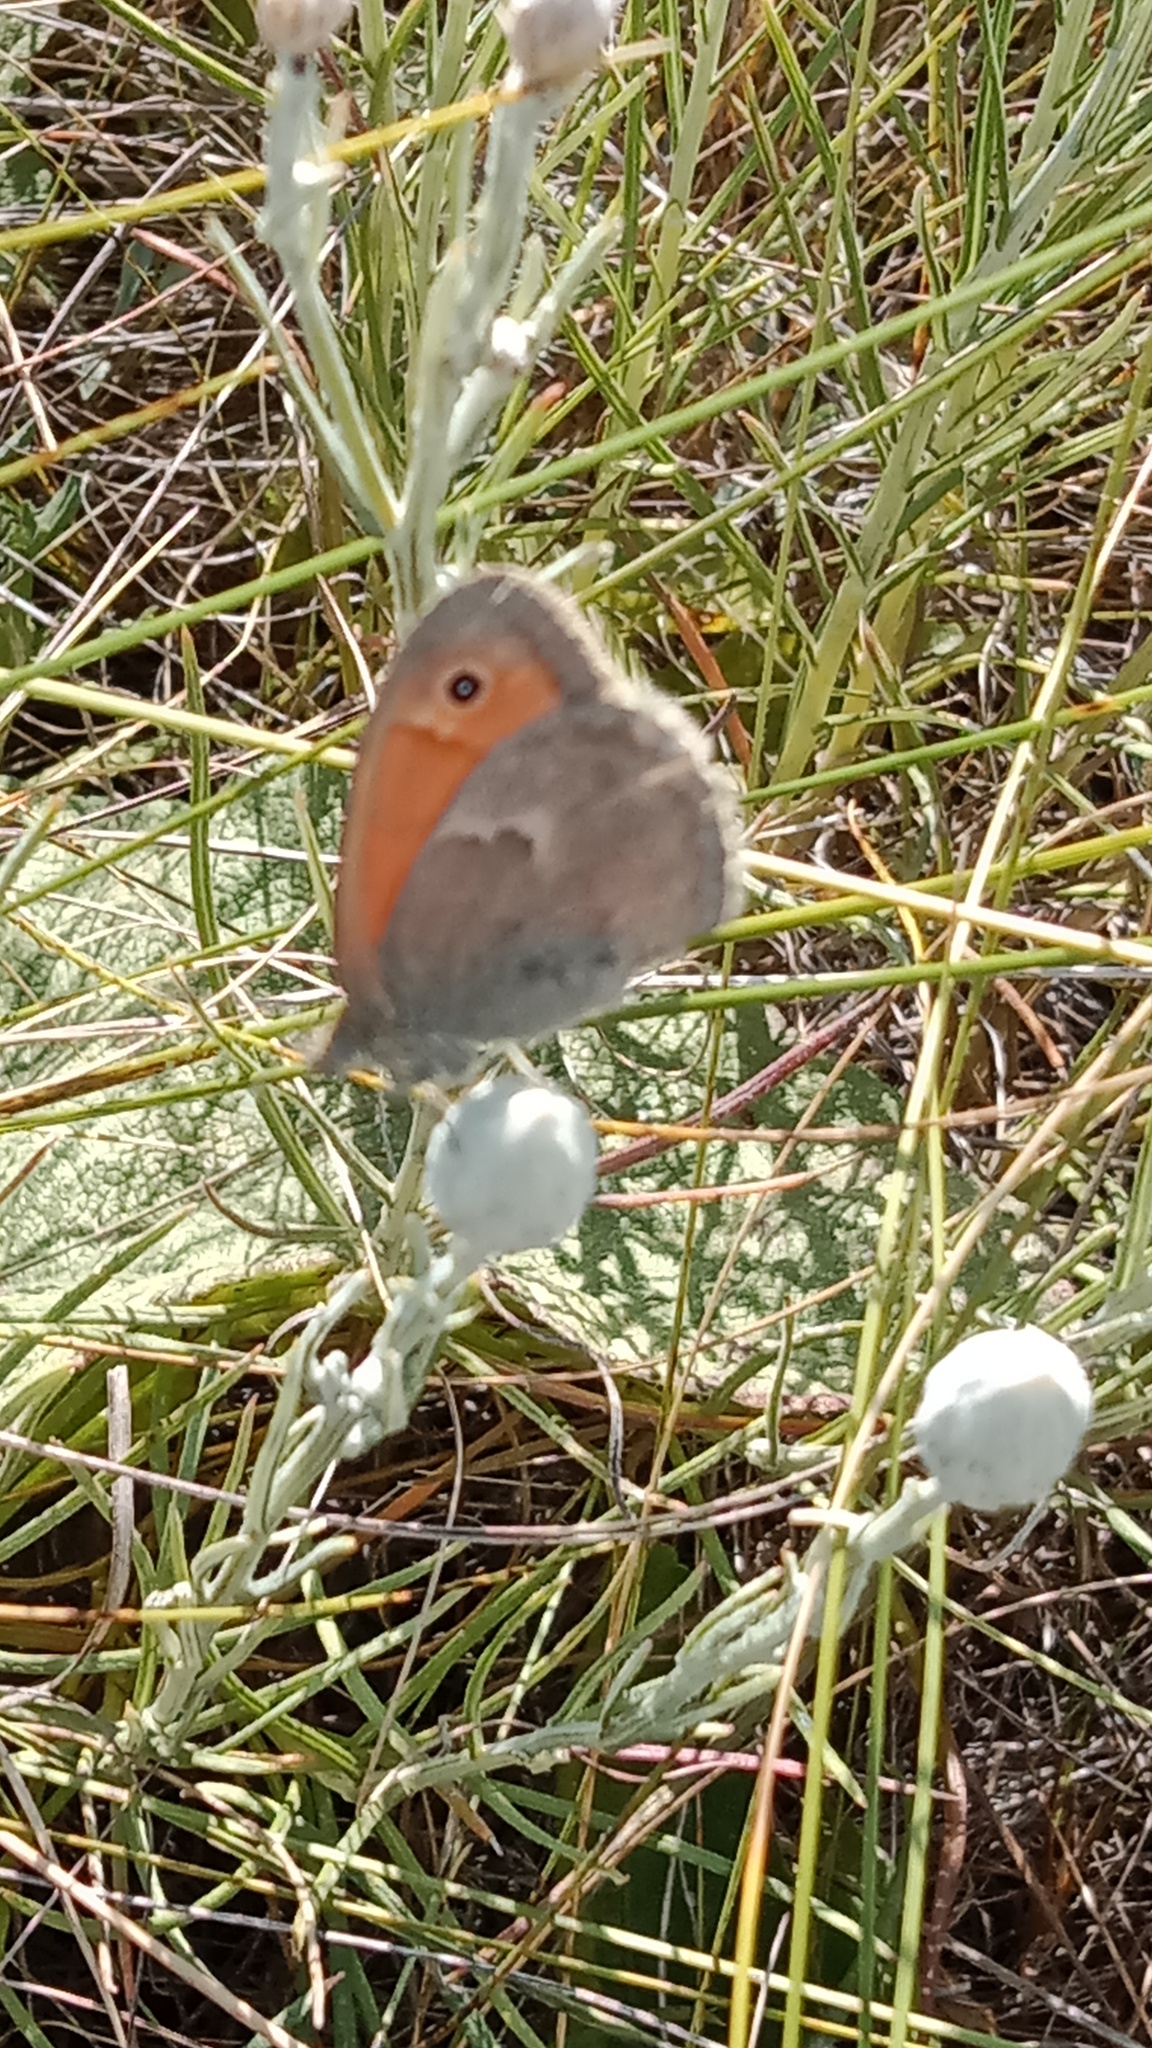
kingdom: Animalia
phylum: Arthropoda
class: Insecta
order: Lepidoptera
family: Nymphalidae
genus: Coenonympha
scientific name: Coenonympha pamphilus
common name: Small heath
